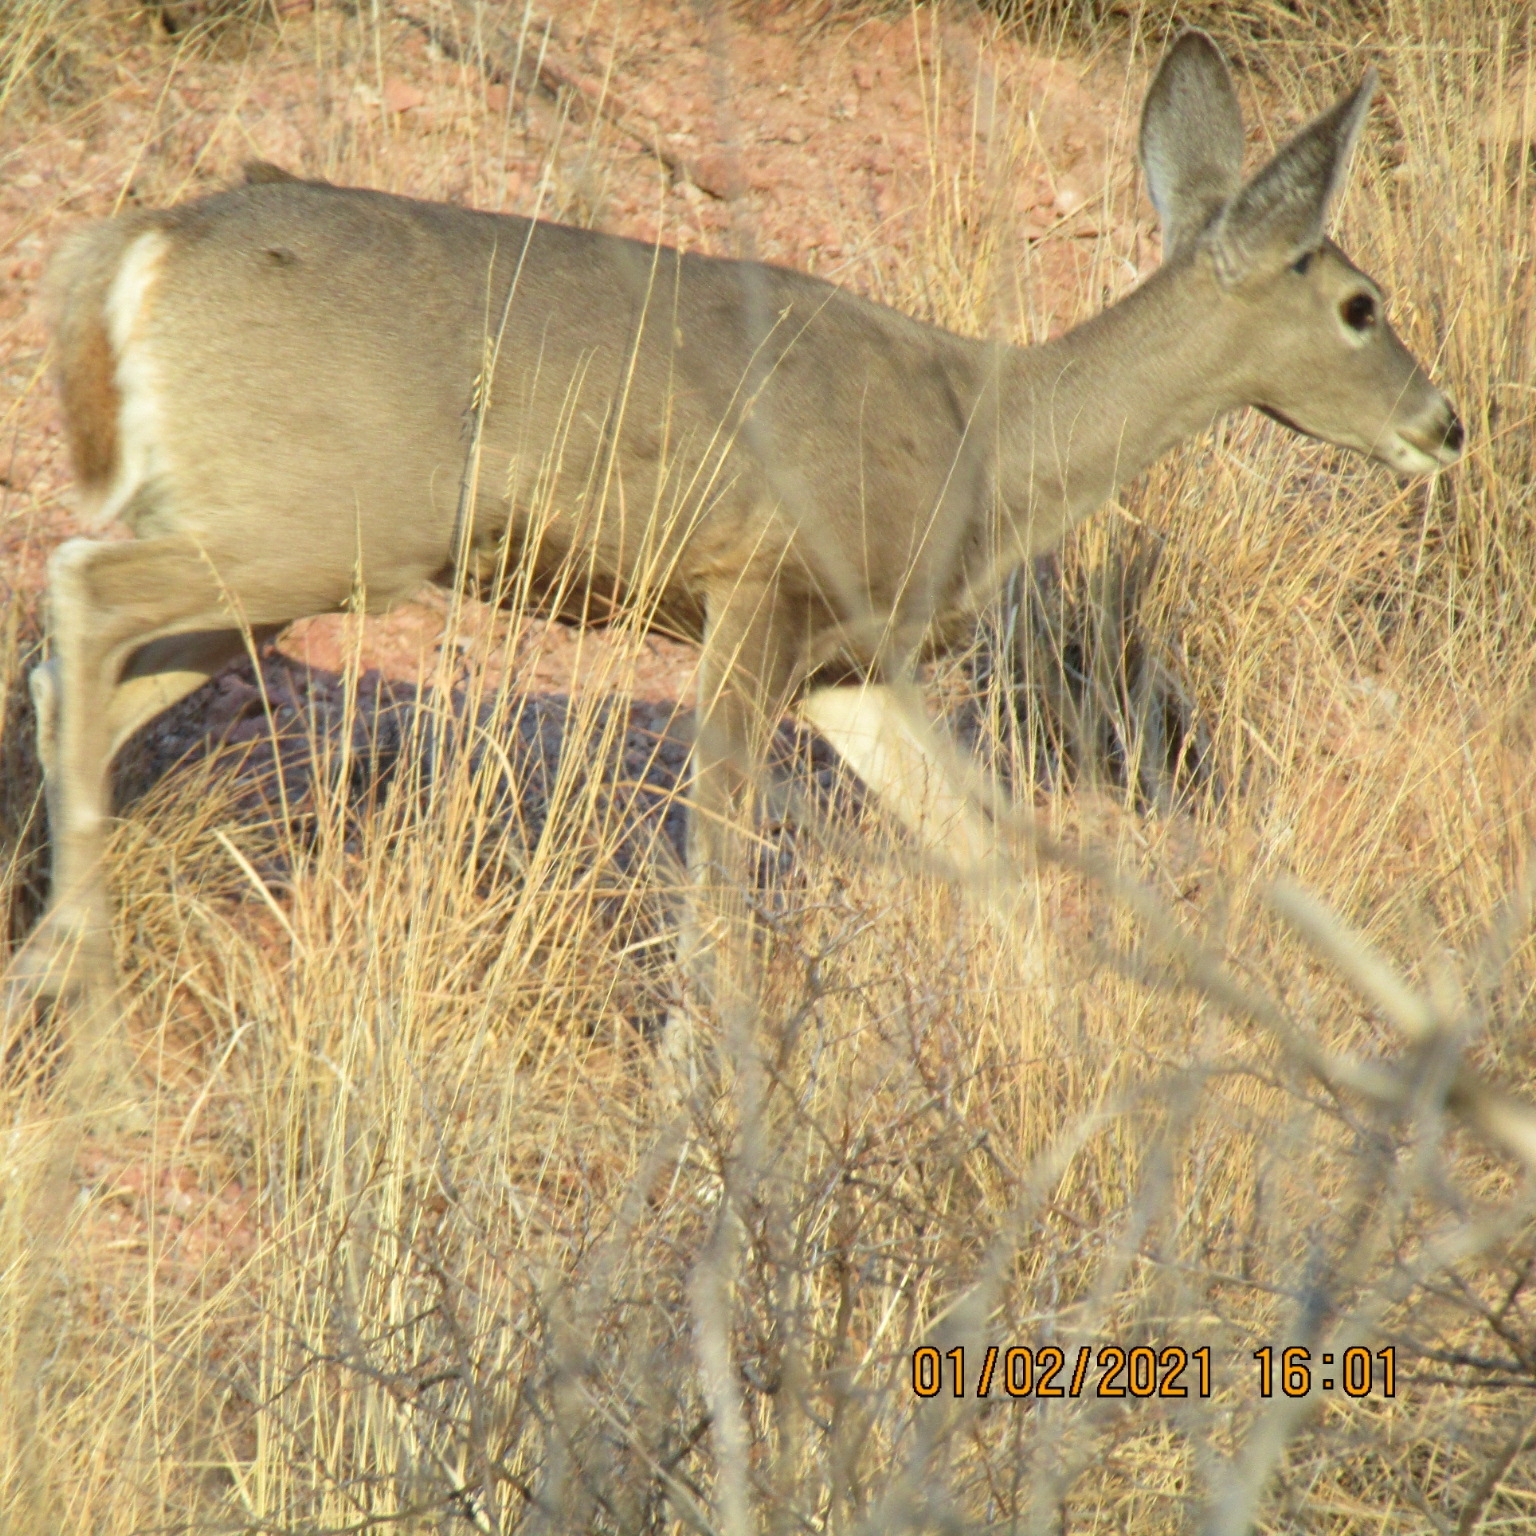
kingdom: Animalia
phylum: Chordata
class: Mammalia
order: Artiodactyla
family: Cervidae
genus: Odocoileus
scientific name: Odocoileus virginianus
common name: White-tailed deer
